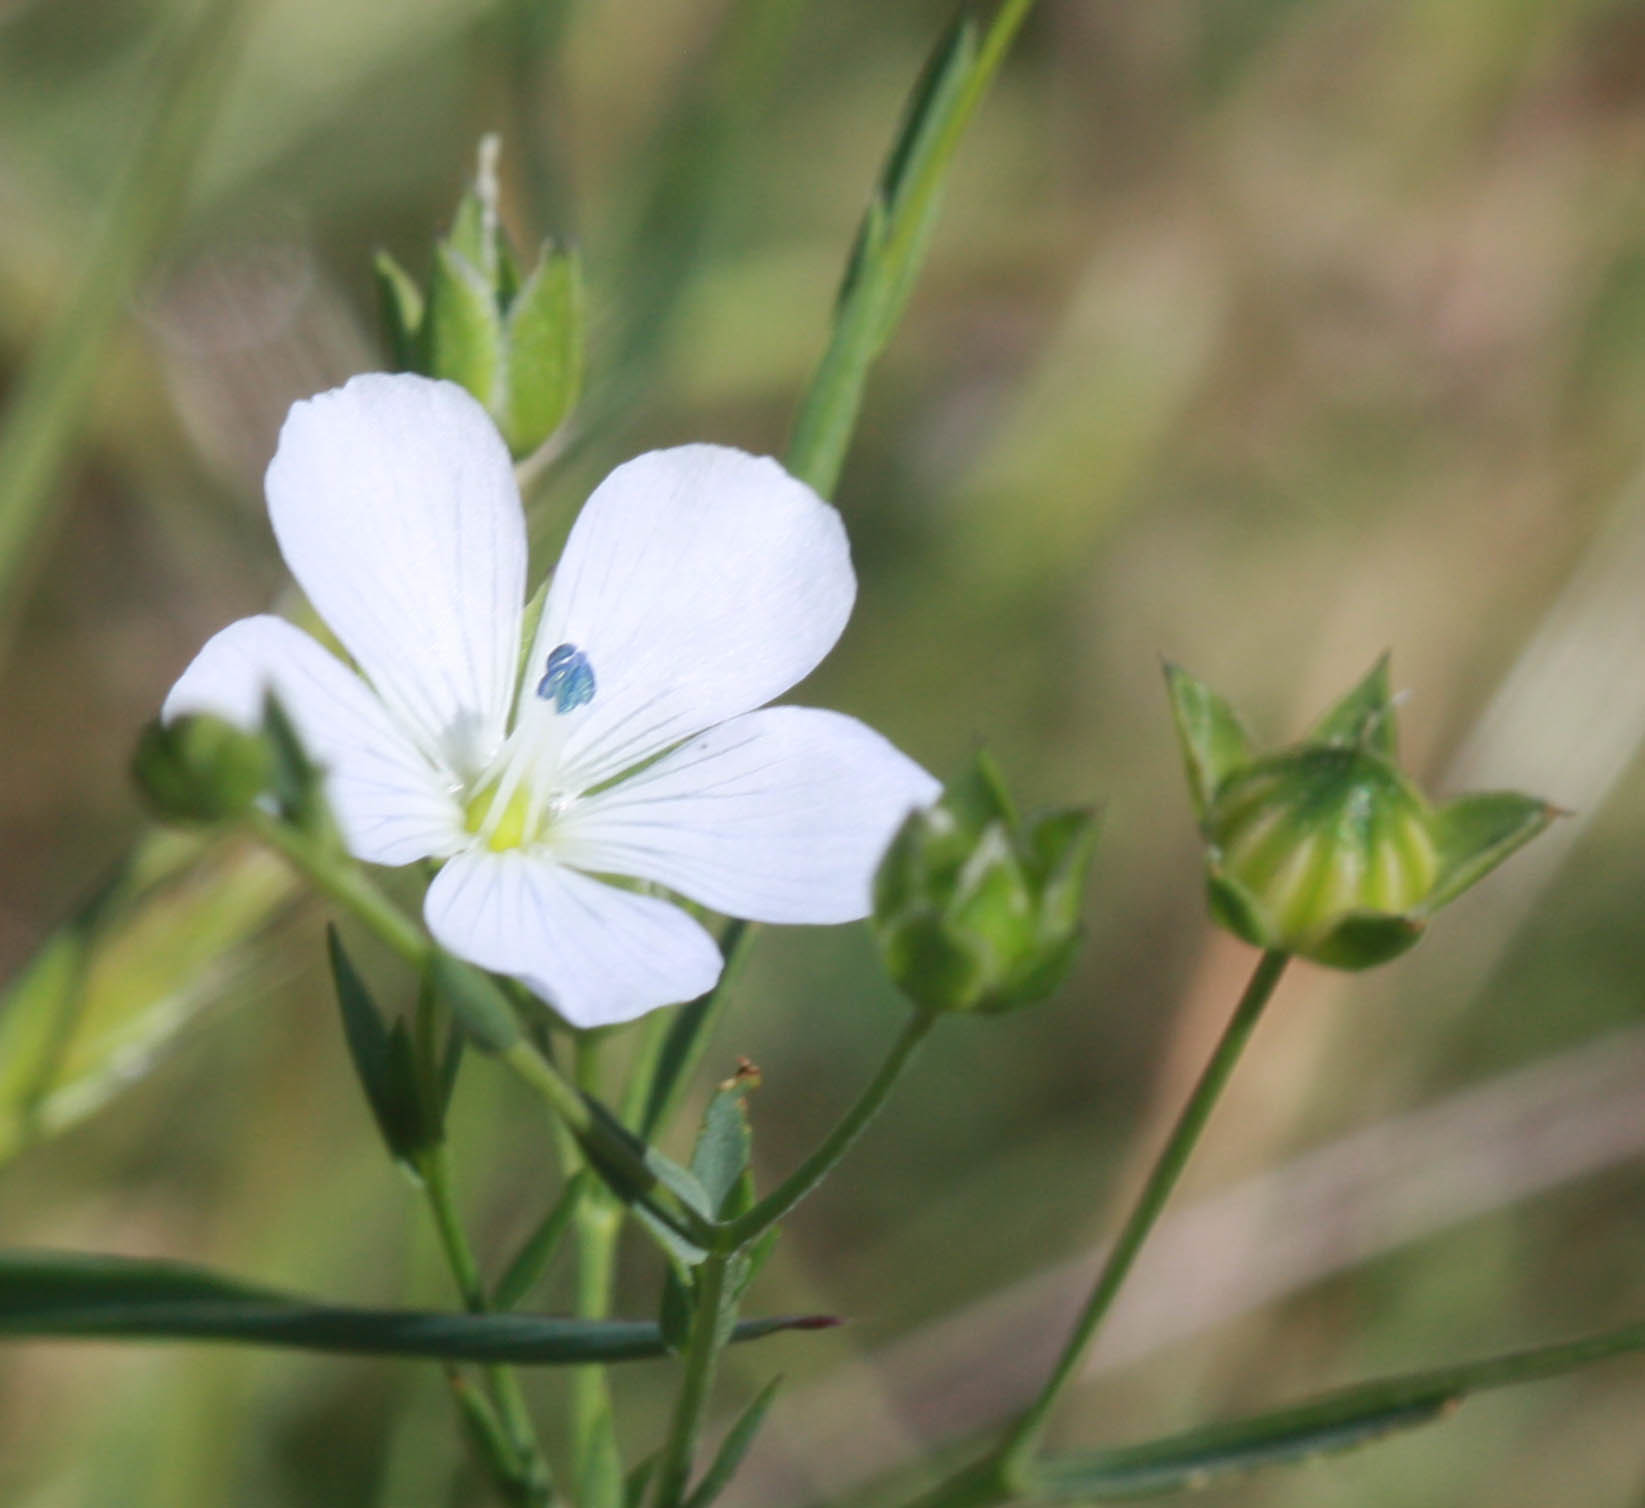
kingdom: Plantae
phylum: Tracheophyta
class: Magnoliopsida
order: Malpighiales
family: Linaceae
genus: Linum
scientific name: Linum bienne
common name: Pale flax
